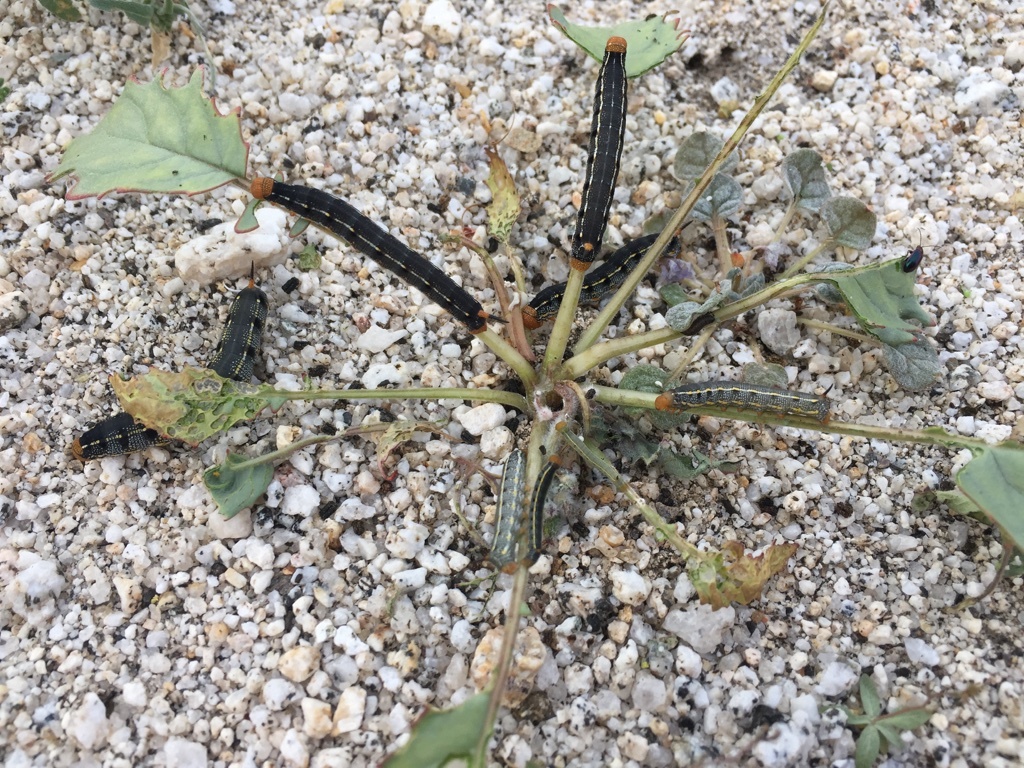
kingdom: Animalia
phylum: Arthropoda
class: Insecta
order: Lepidoptera
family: Sphingidae
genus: Hyles
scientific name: Hyles lineata
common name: White-lined sphinx
